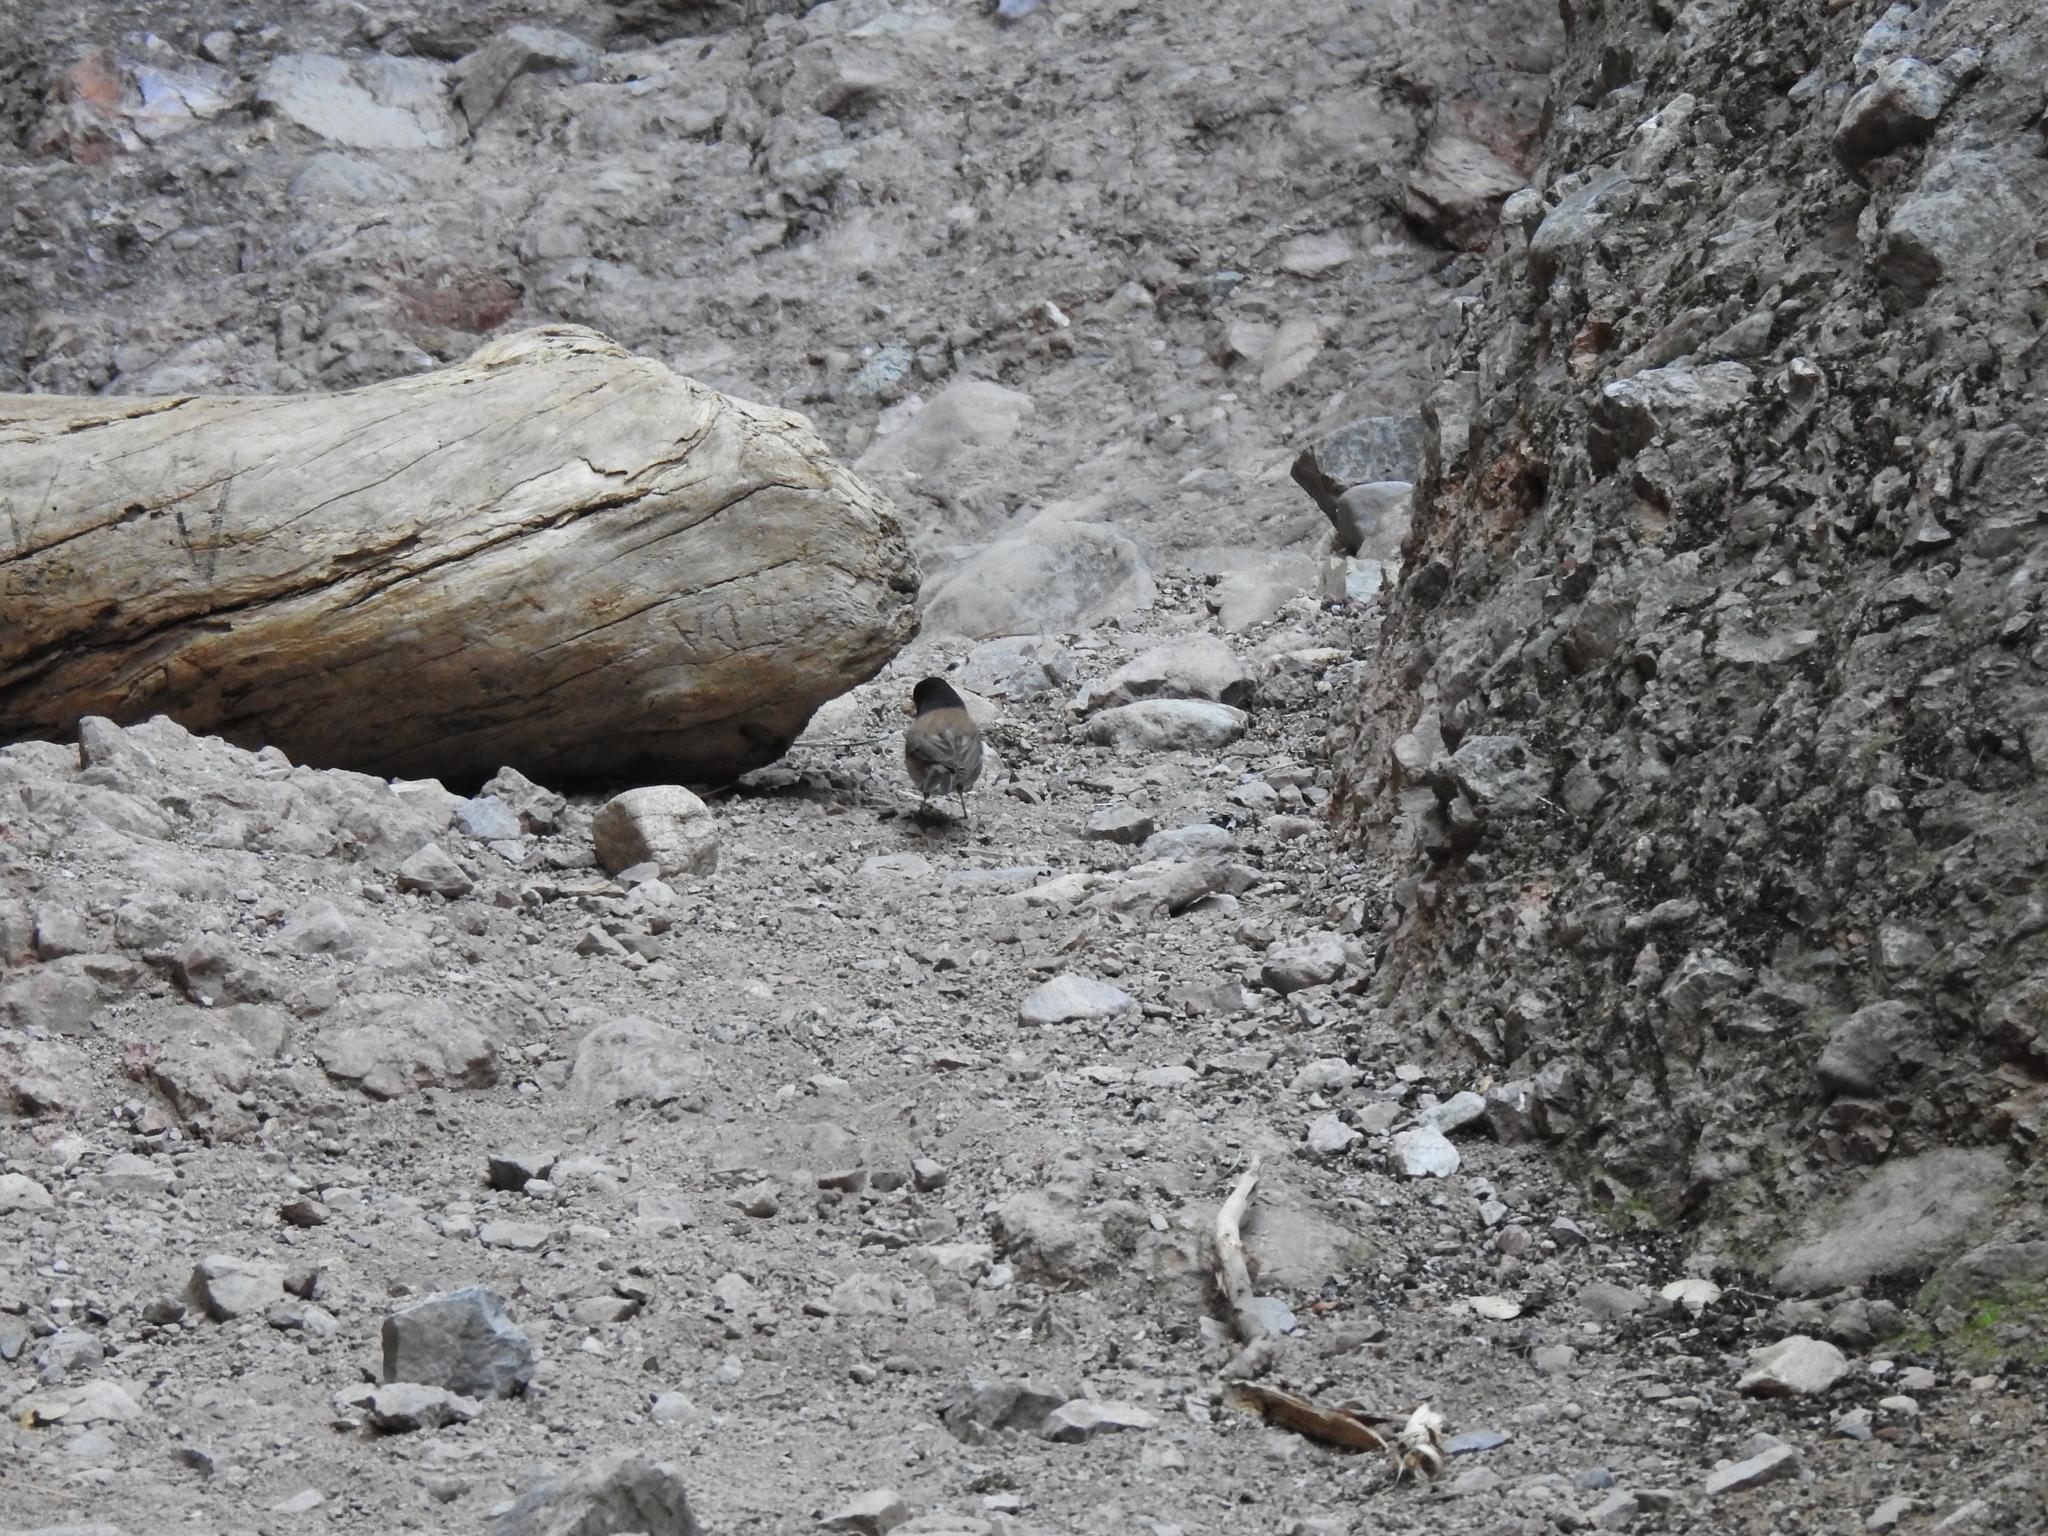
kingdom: Animalia
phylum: Chordata
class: Aves
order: Passeriformes
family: Passerellidae
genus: Junco
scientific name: Junco hyemalis
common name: Dark-eyed junco
